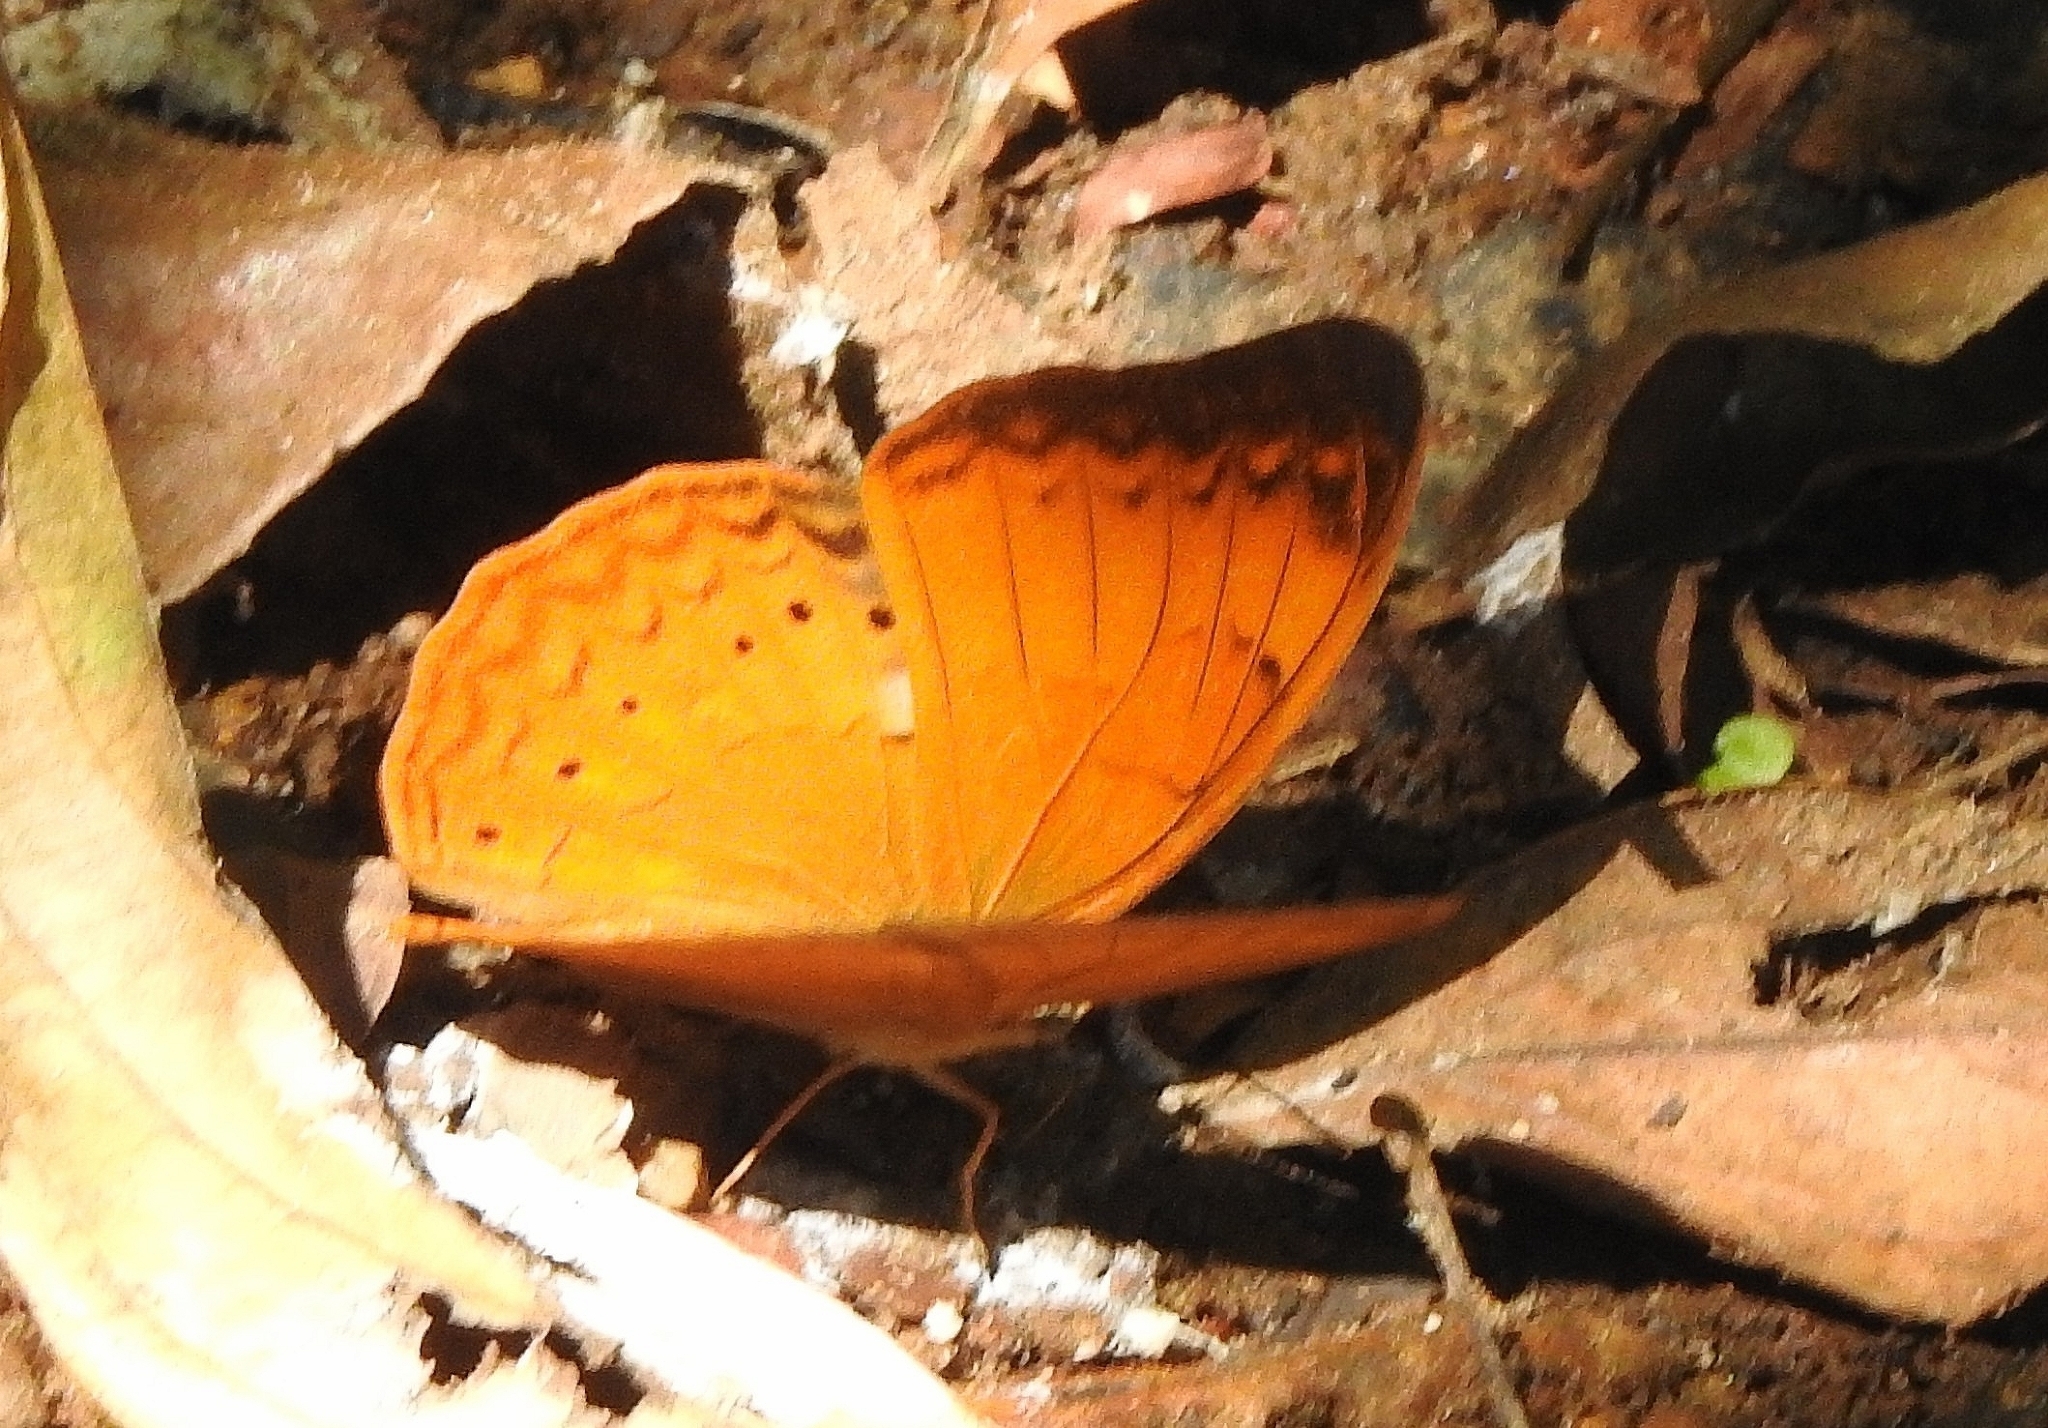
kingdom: Animalia
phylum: Arthropoda
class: Insecta
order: Lepidoptera
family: Nymphalidae
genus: Cirrochroa
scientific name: Cirrochroa thais
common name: Tamil yeoman
